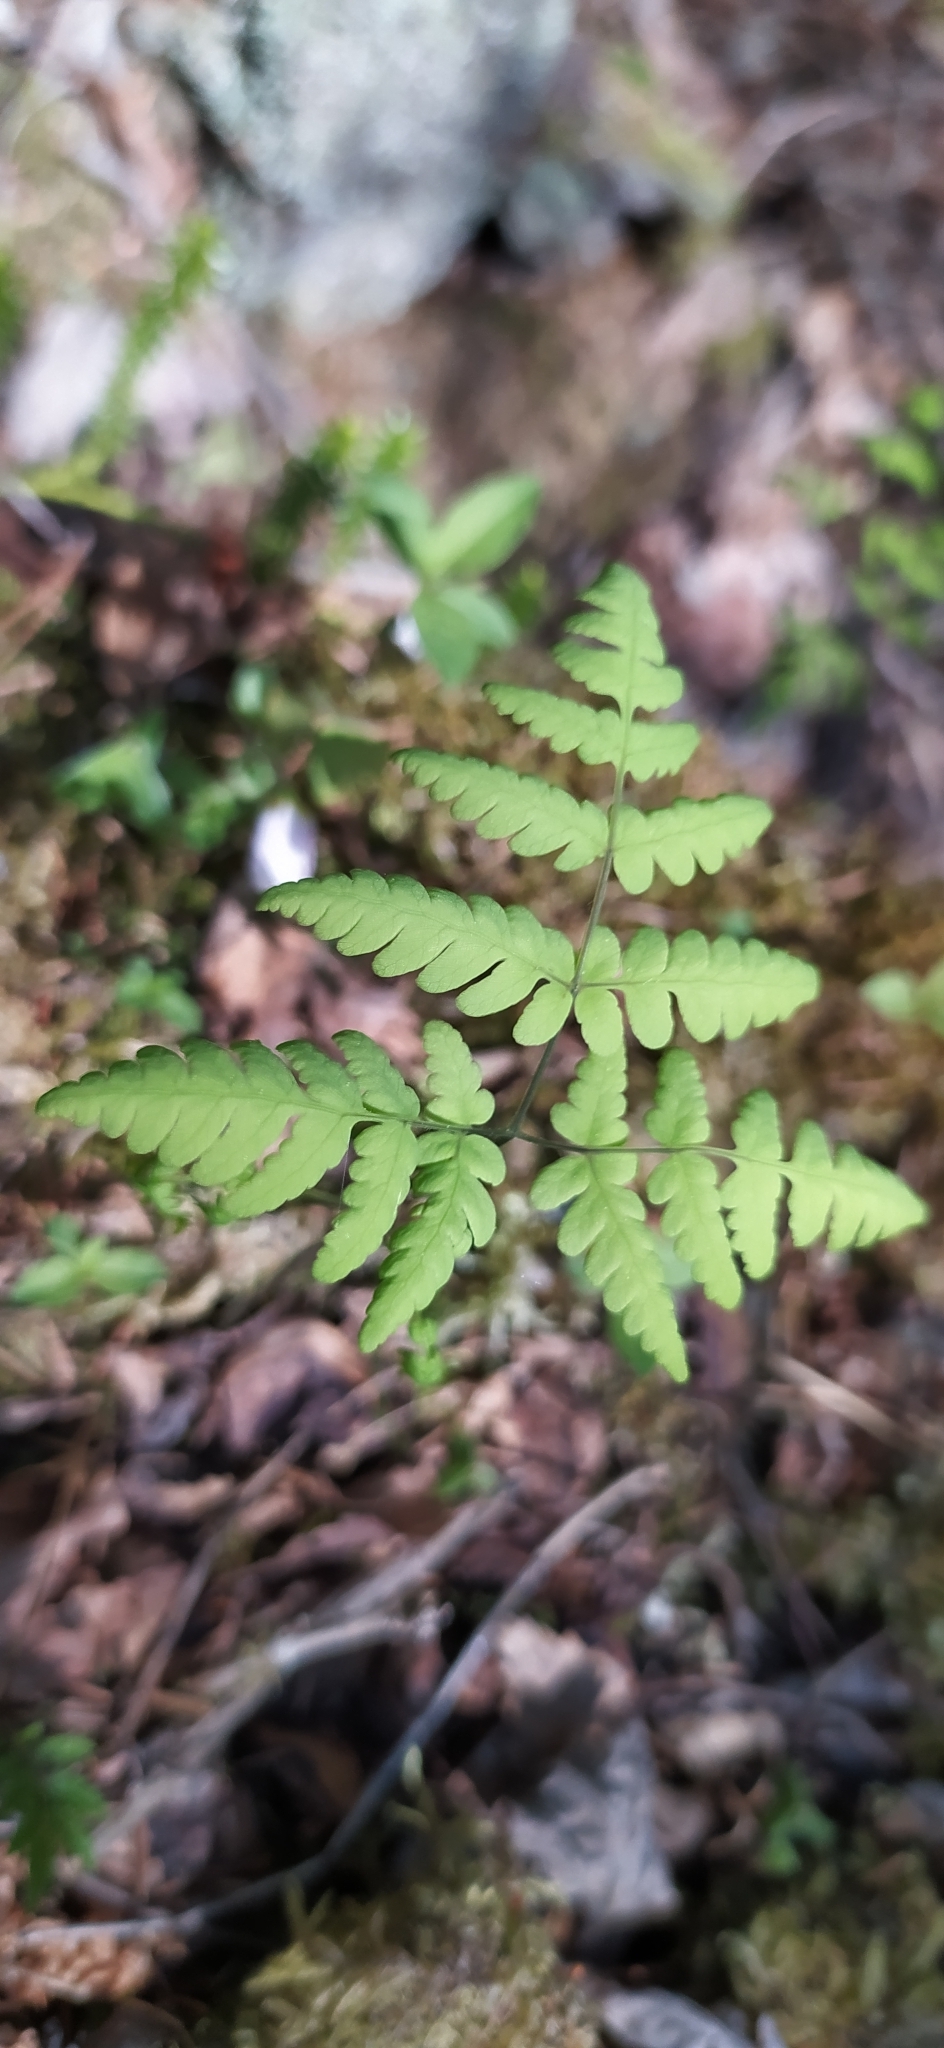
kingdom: Plantae
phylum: Tracheophyta
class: Polypodiopsida
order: Polypodiales
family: Cystopteridaceae
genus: Gymnocarpium
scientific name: Gymnocarpium dryopteris
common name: Oak fern
